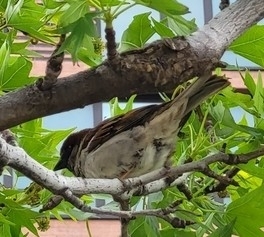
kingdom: Animalia
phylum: Chordata
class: Aves
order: Passeriformes
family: Passeridae
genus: Passer
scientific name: Passer domesticus
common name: House sparrow
